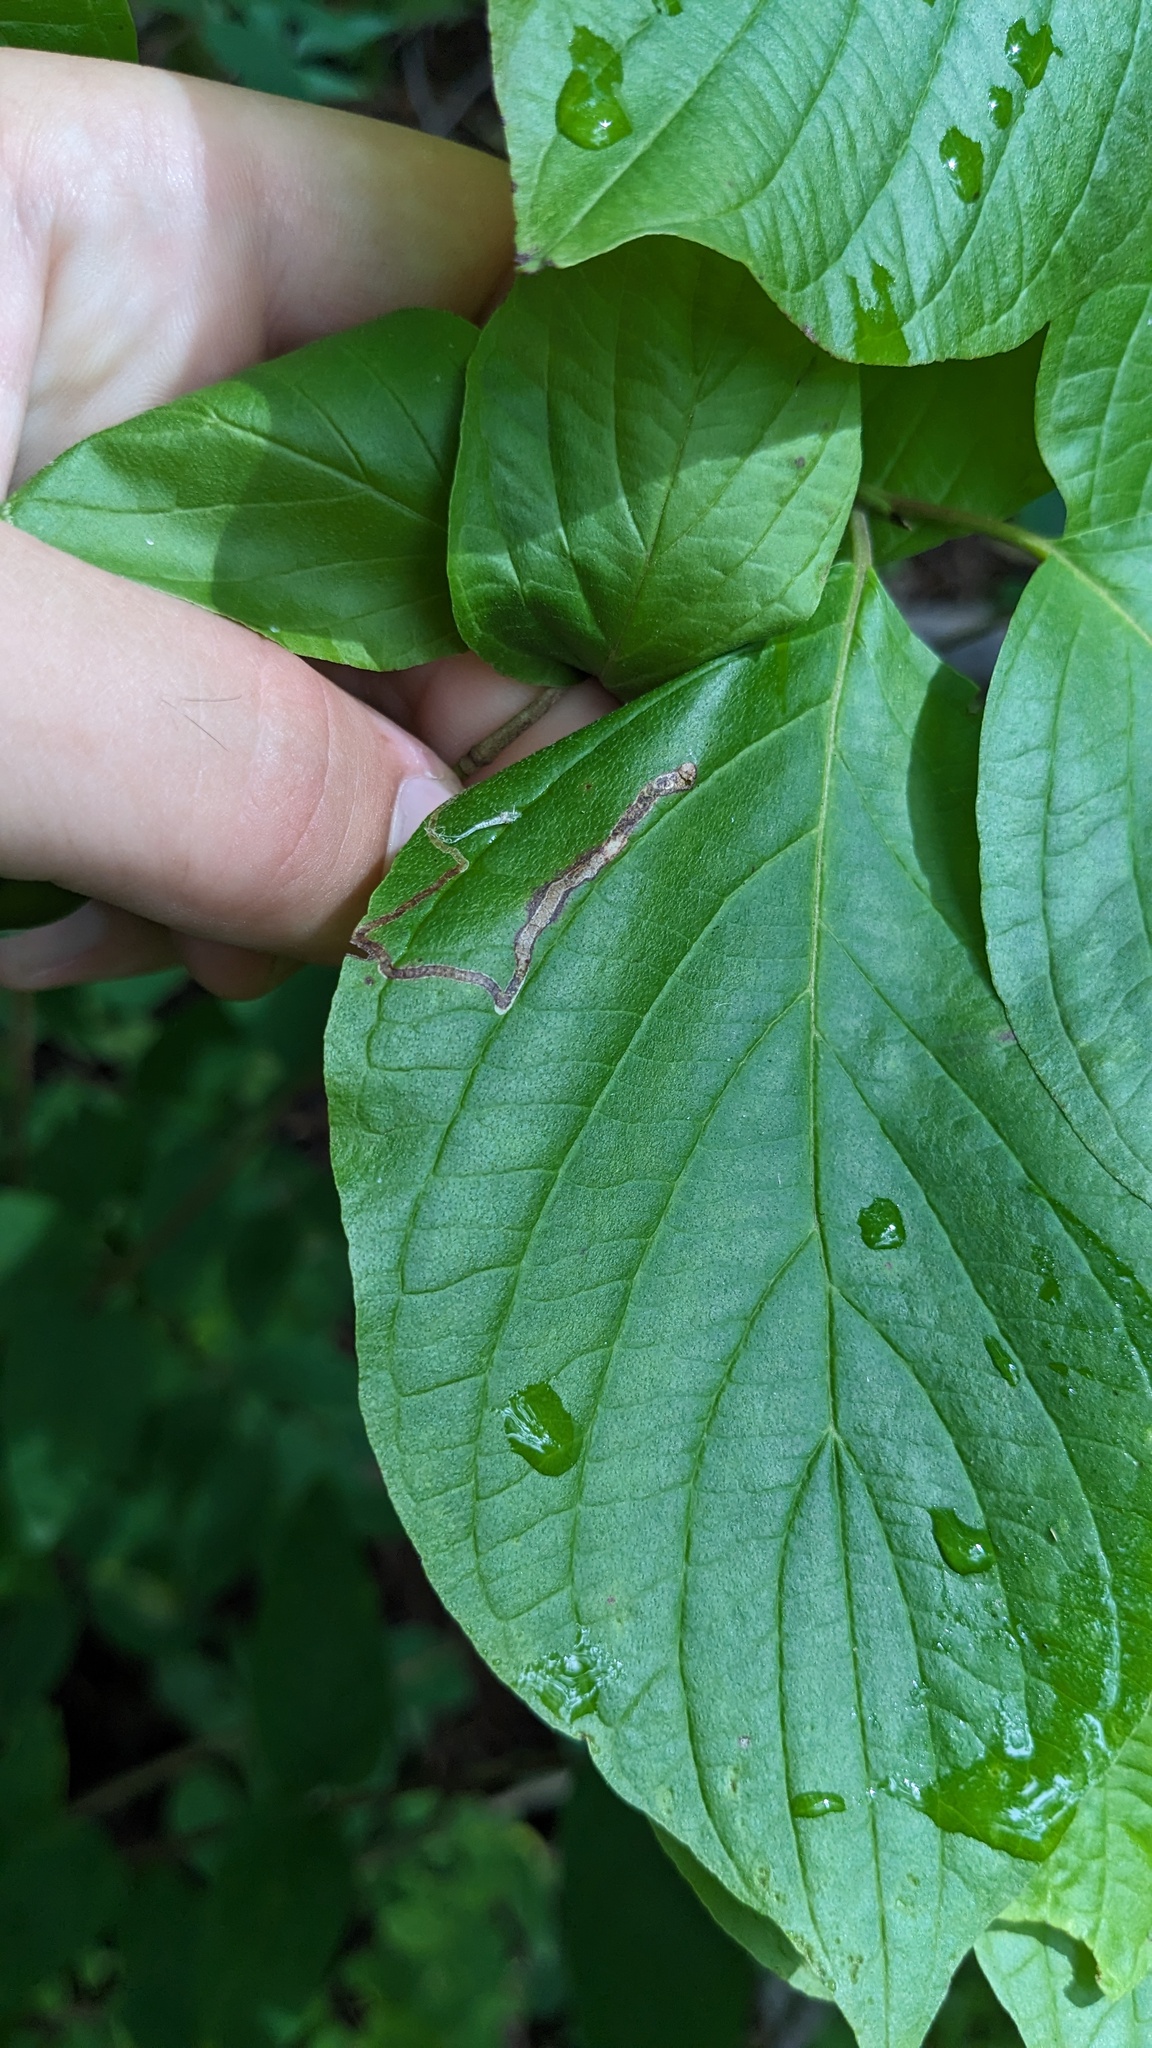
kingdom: Animalia
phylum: Arthropoda
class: Insecta
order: Diptera
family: Agromyzidae
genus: Phytomyza
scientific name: Phytomyza agromyzina
